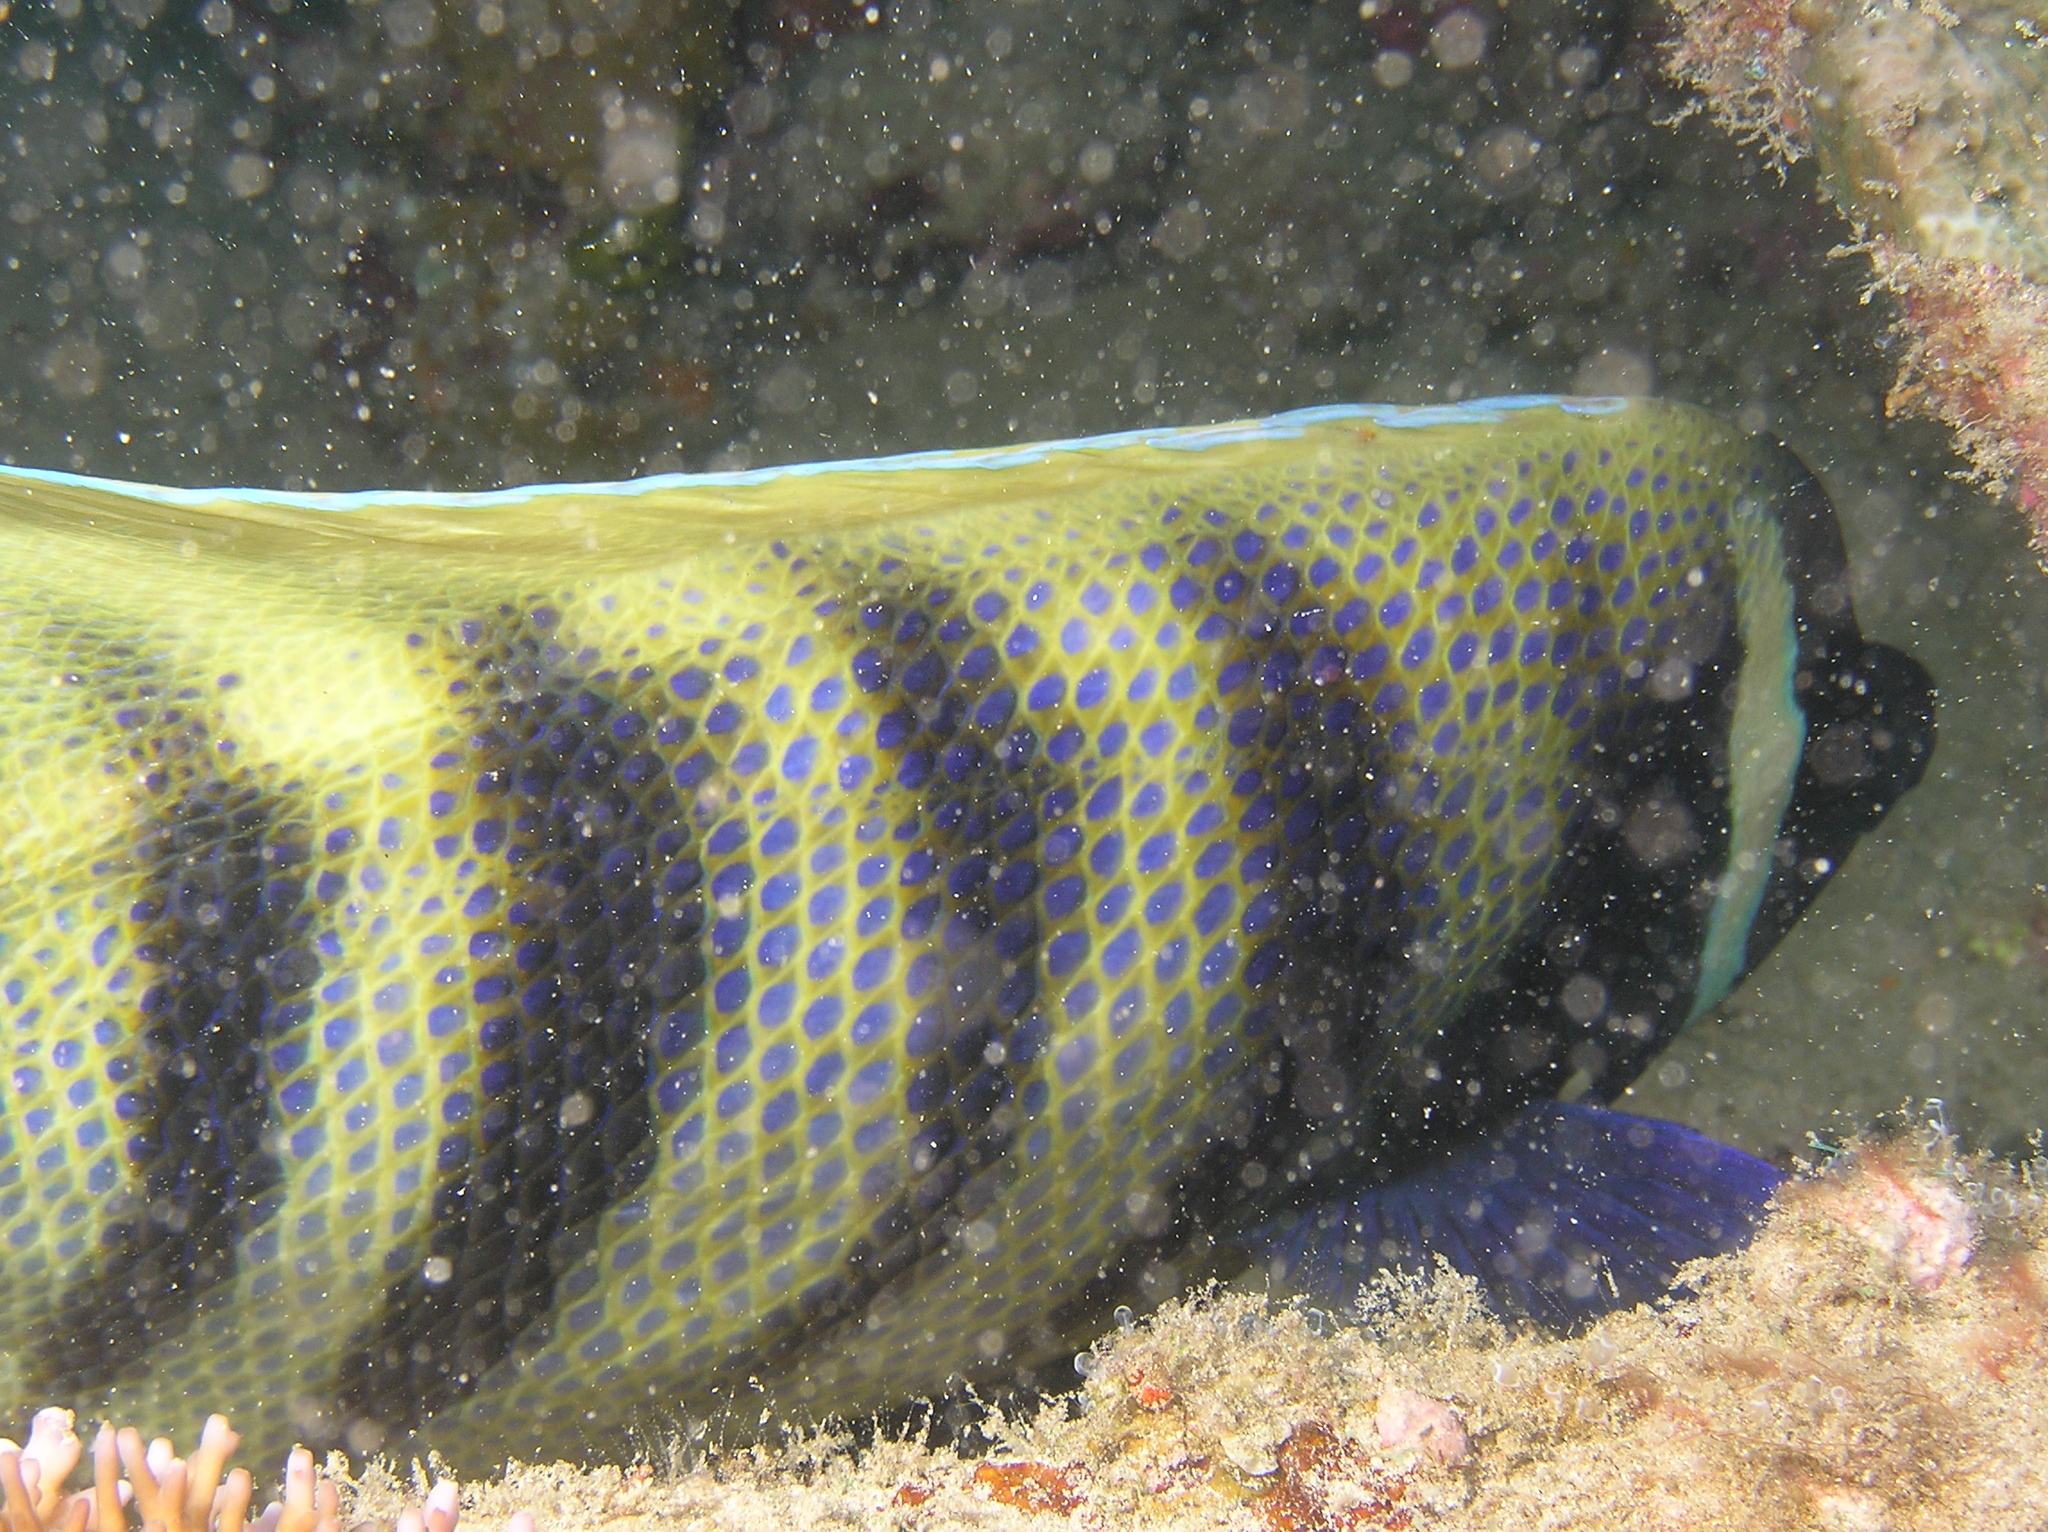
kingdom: Animalia
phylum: Chordata
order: Perciformes
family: Pomacanthidae
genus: Pomacanthus
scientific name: Pomacanthus sexstriatus
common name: Six-banded angelfish
